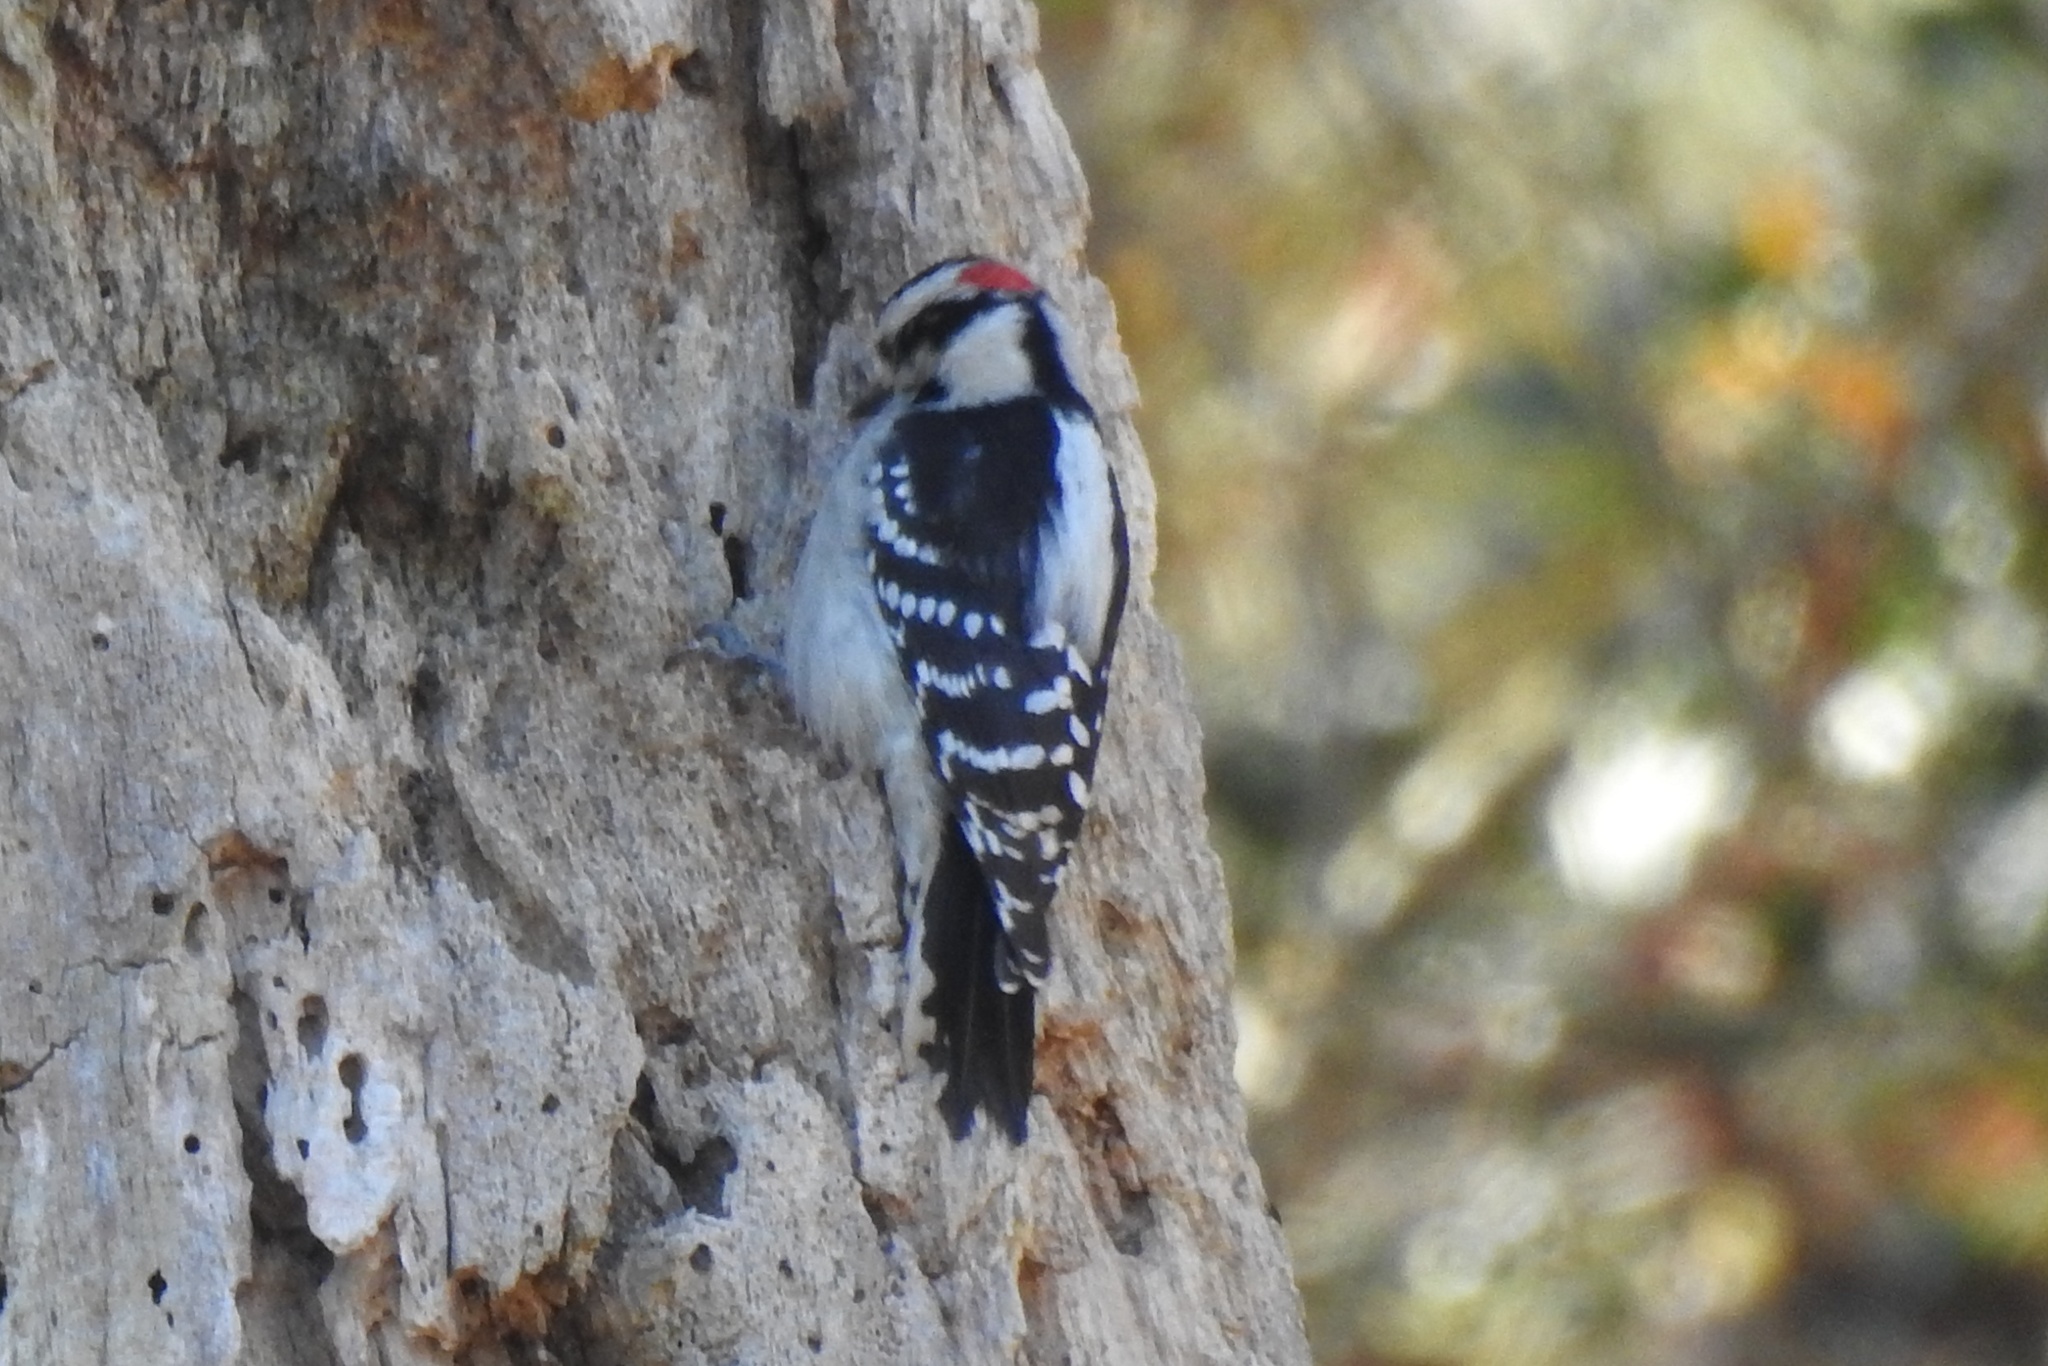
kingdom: Animalia
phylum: Chordata
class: Aves
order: Piciformes
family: Picidae
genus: Dryobates
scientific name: Dryobates pubescens
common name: Downy woodpecker
